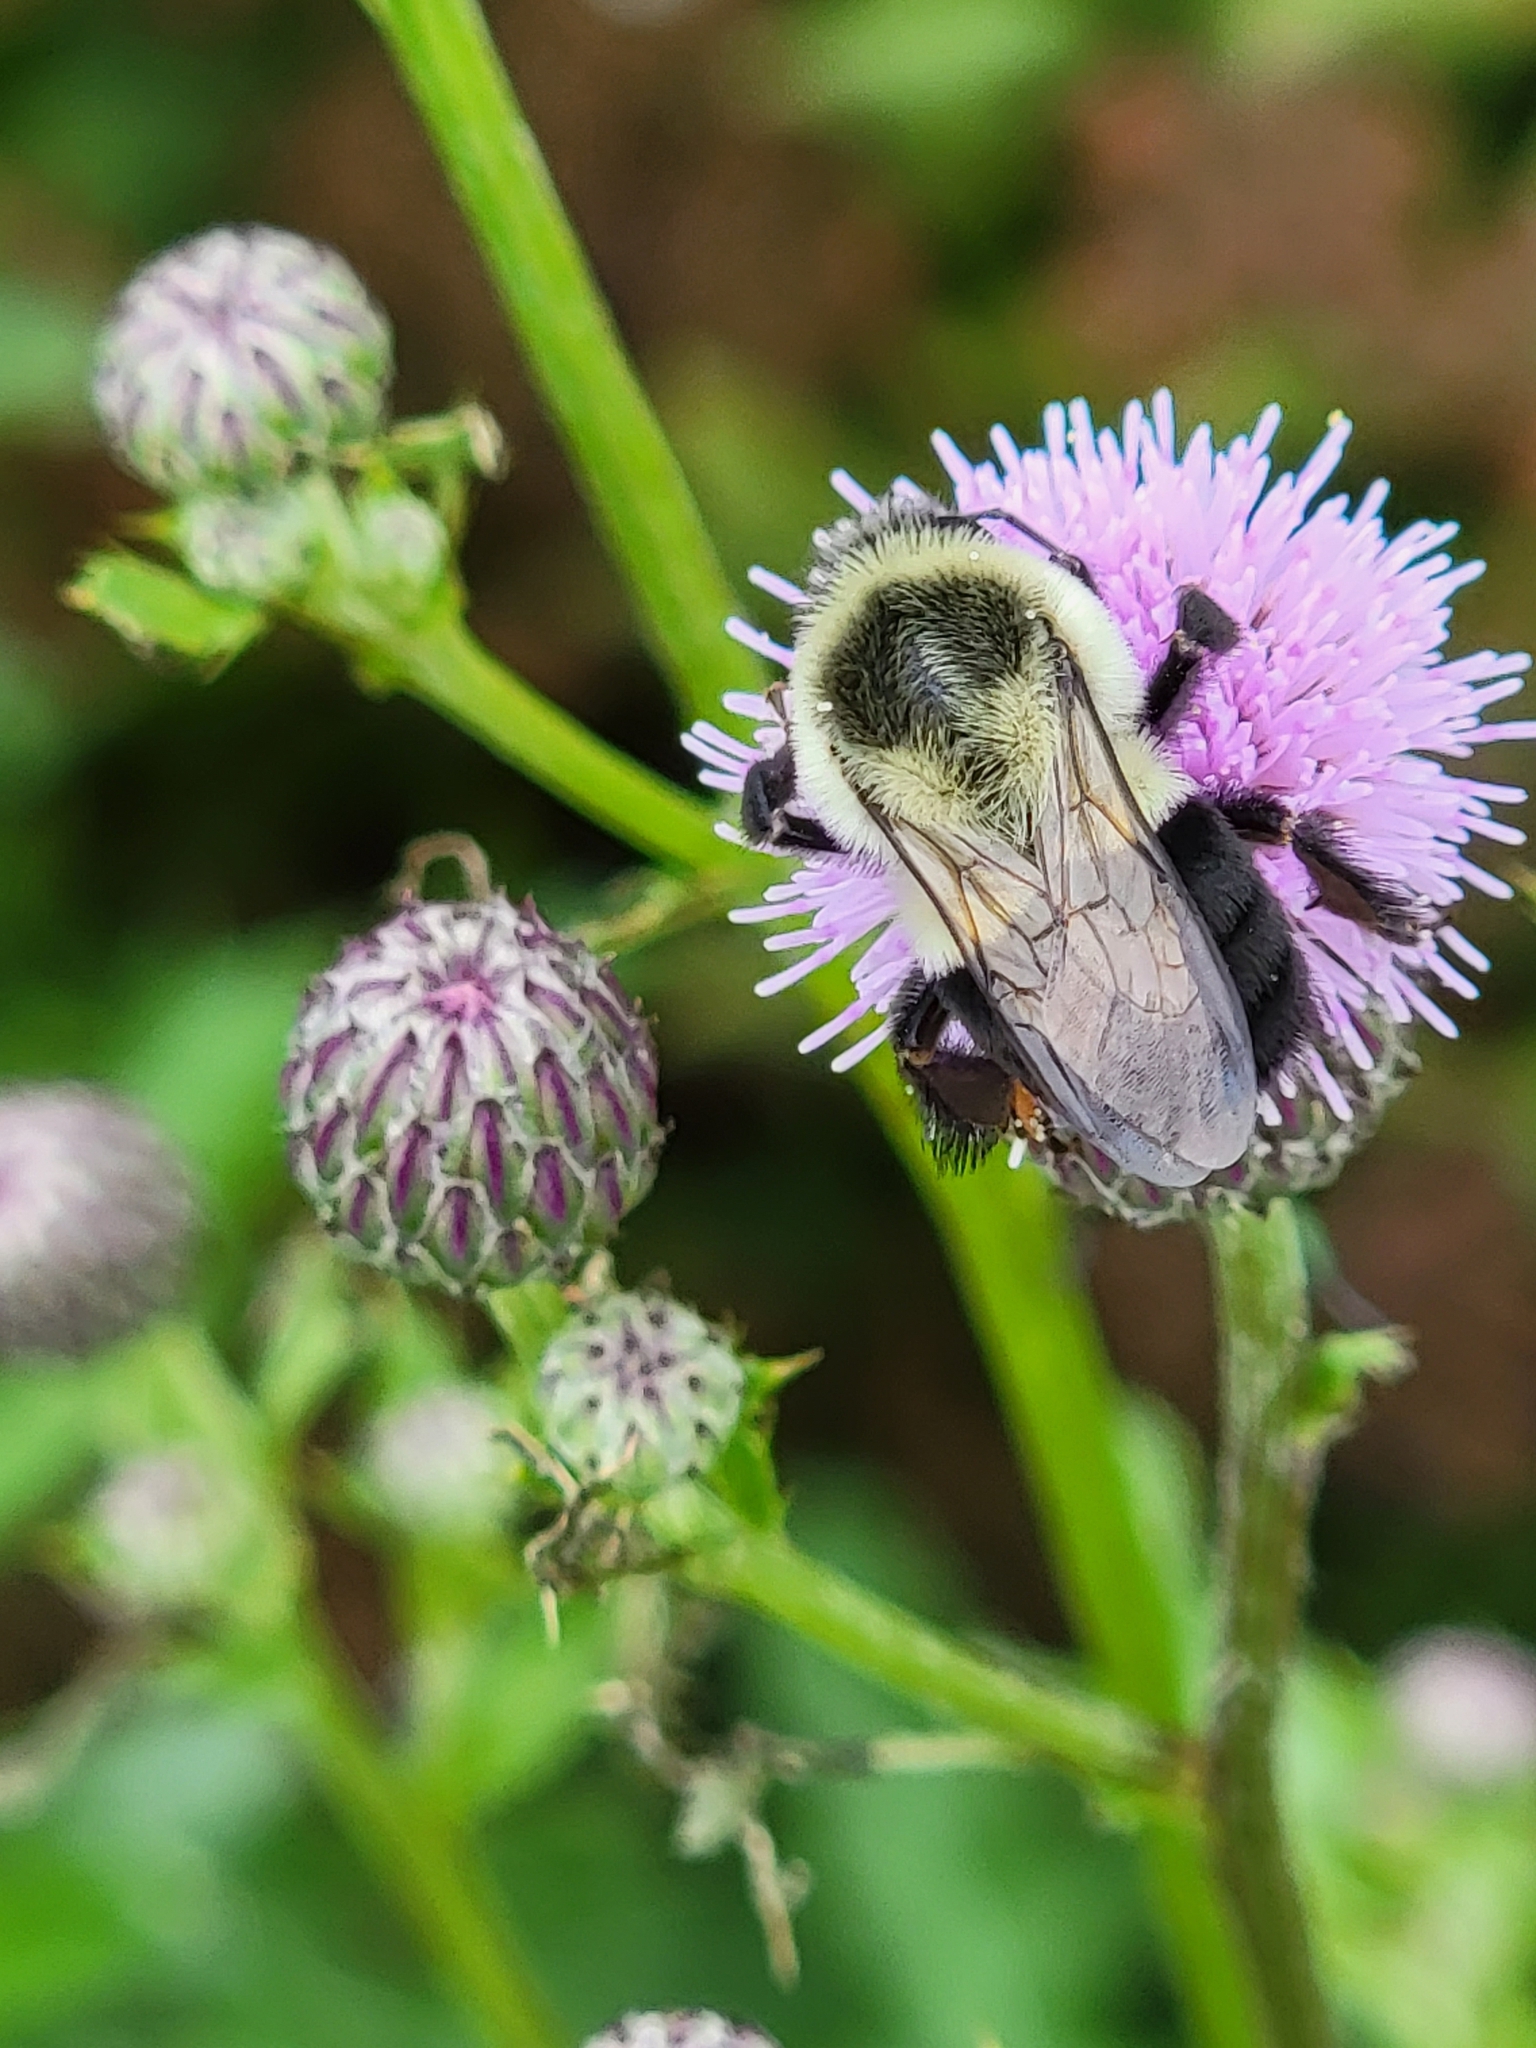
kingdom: Animalia
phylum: Arthropoda
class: Insecta
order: Hymenoptera
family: Apidae
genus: Bombus
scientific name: Bombus impatiens
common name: Common eastern bumble bee
